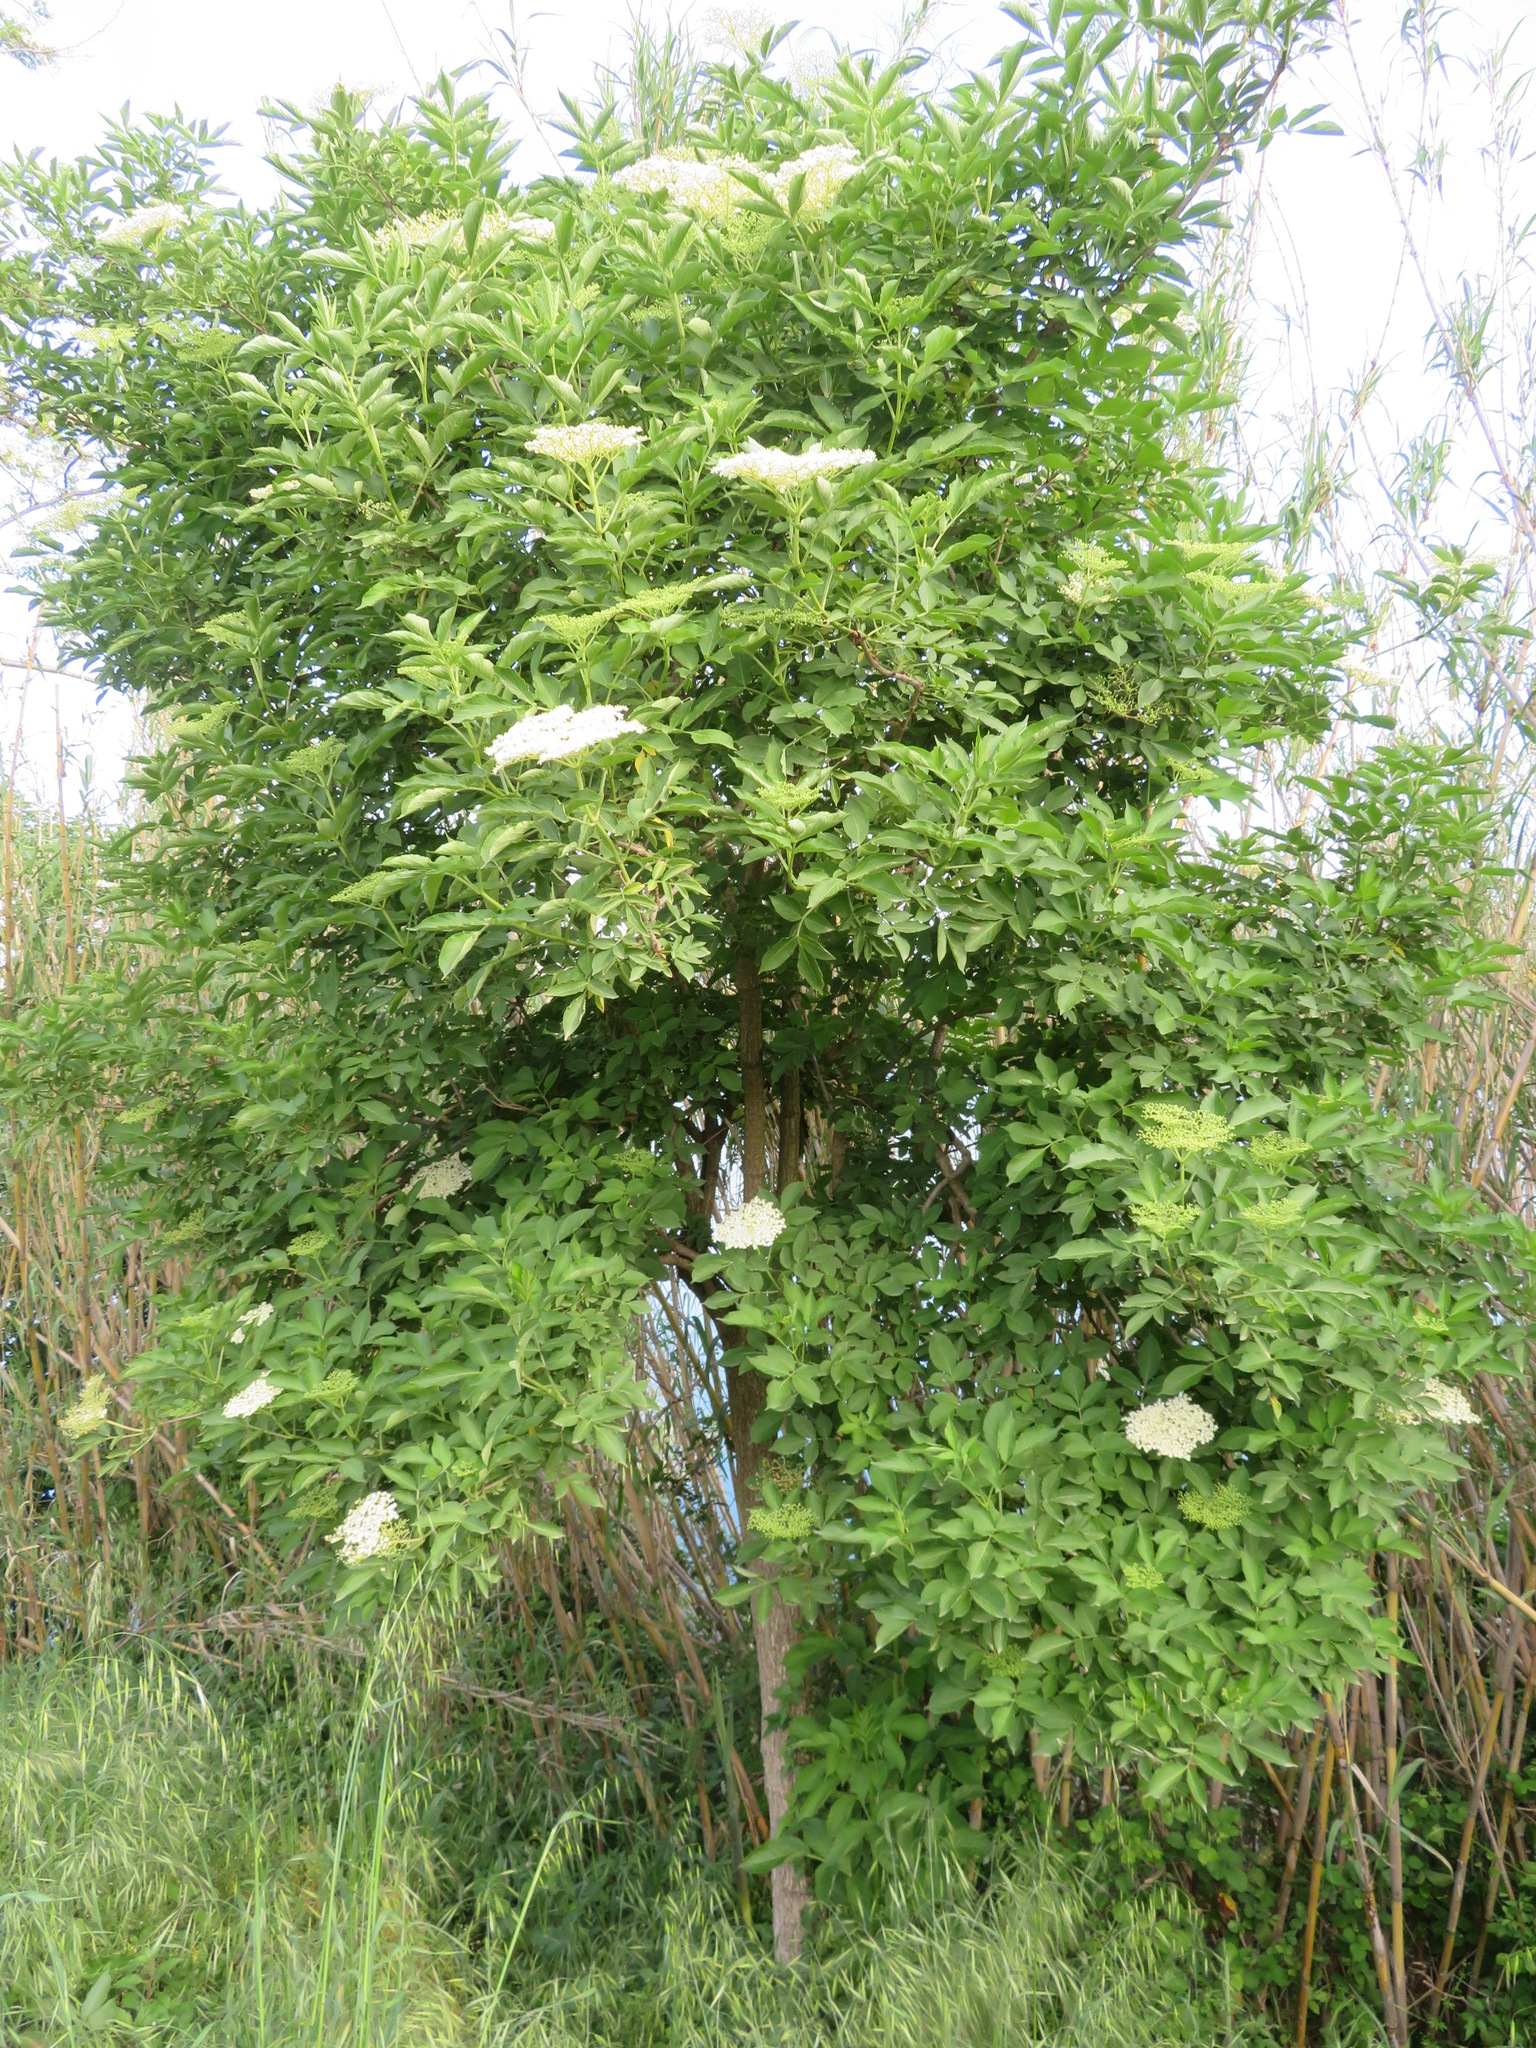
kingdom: Plantae
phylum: Tracheophyta
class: Magnoliopsida
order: Dipsacales
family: Viburnaceae
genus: Sambucus
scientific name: Sambucus nigra
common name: Elder
